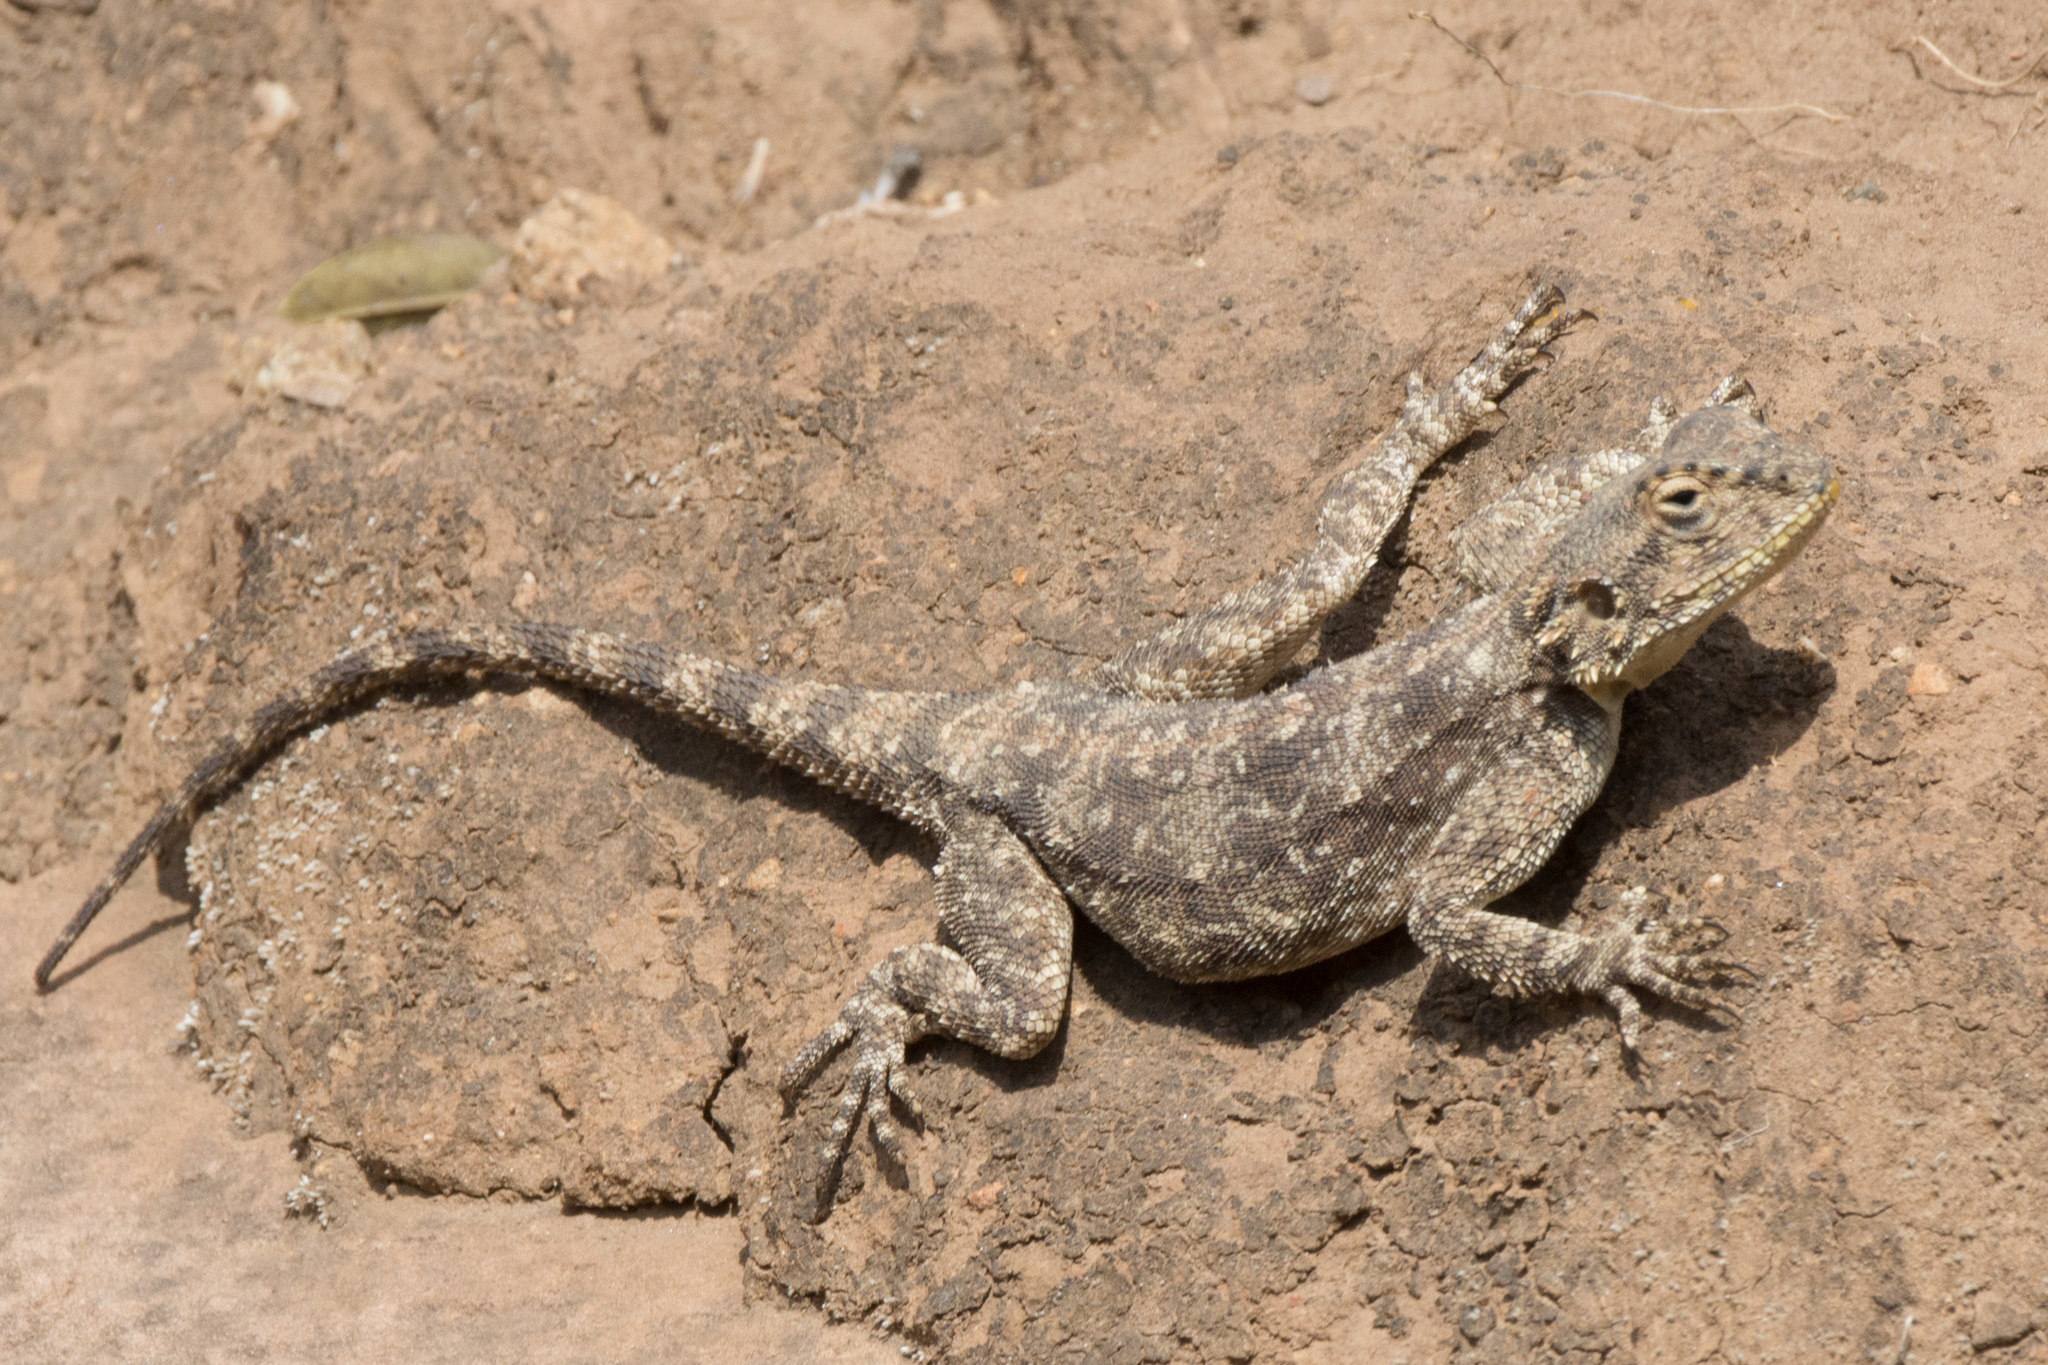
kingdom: Animalia
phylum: Chordata
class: Squamata
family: Agamidae
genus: Agama
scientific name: Agama atra
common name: Southern african rock agama
